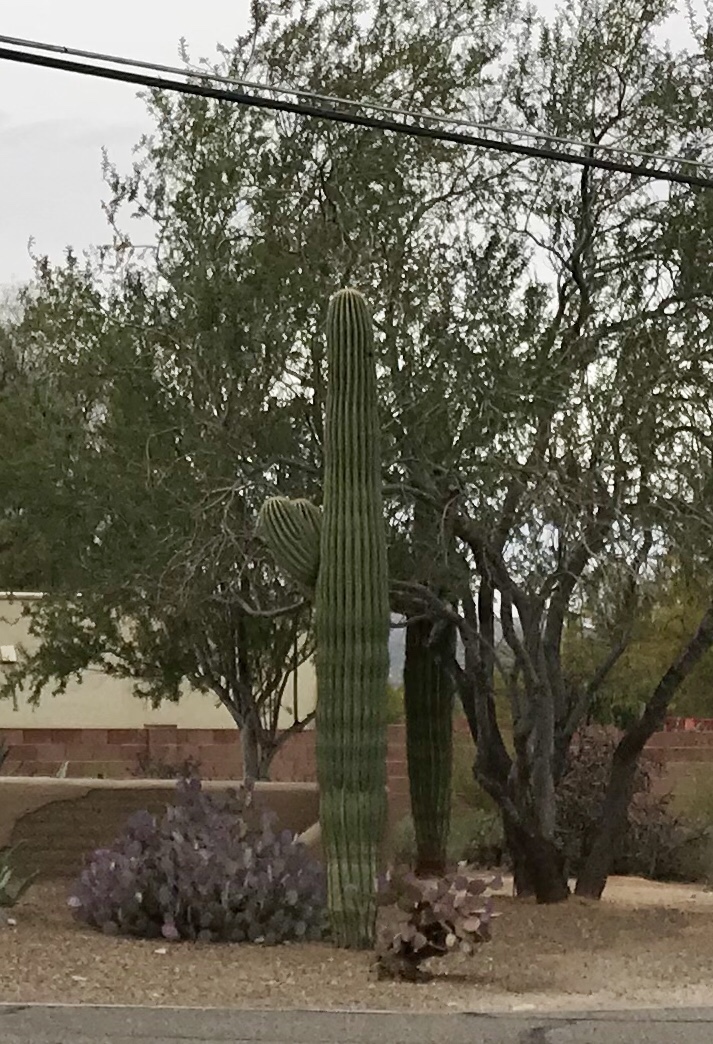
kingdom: Plantae
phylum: Tracheophyta
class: Magnoliopsida
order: Caryophyllales
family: Cactaceae
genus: Carnegiea
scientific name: Carnegiea gigantea
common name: Saguaro
